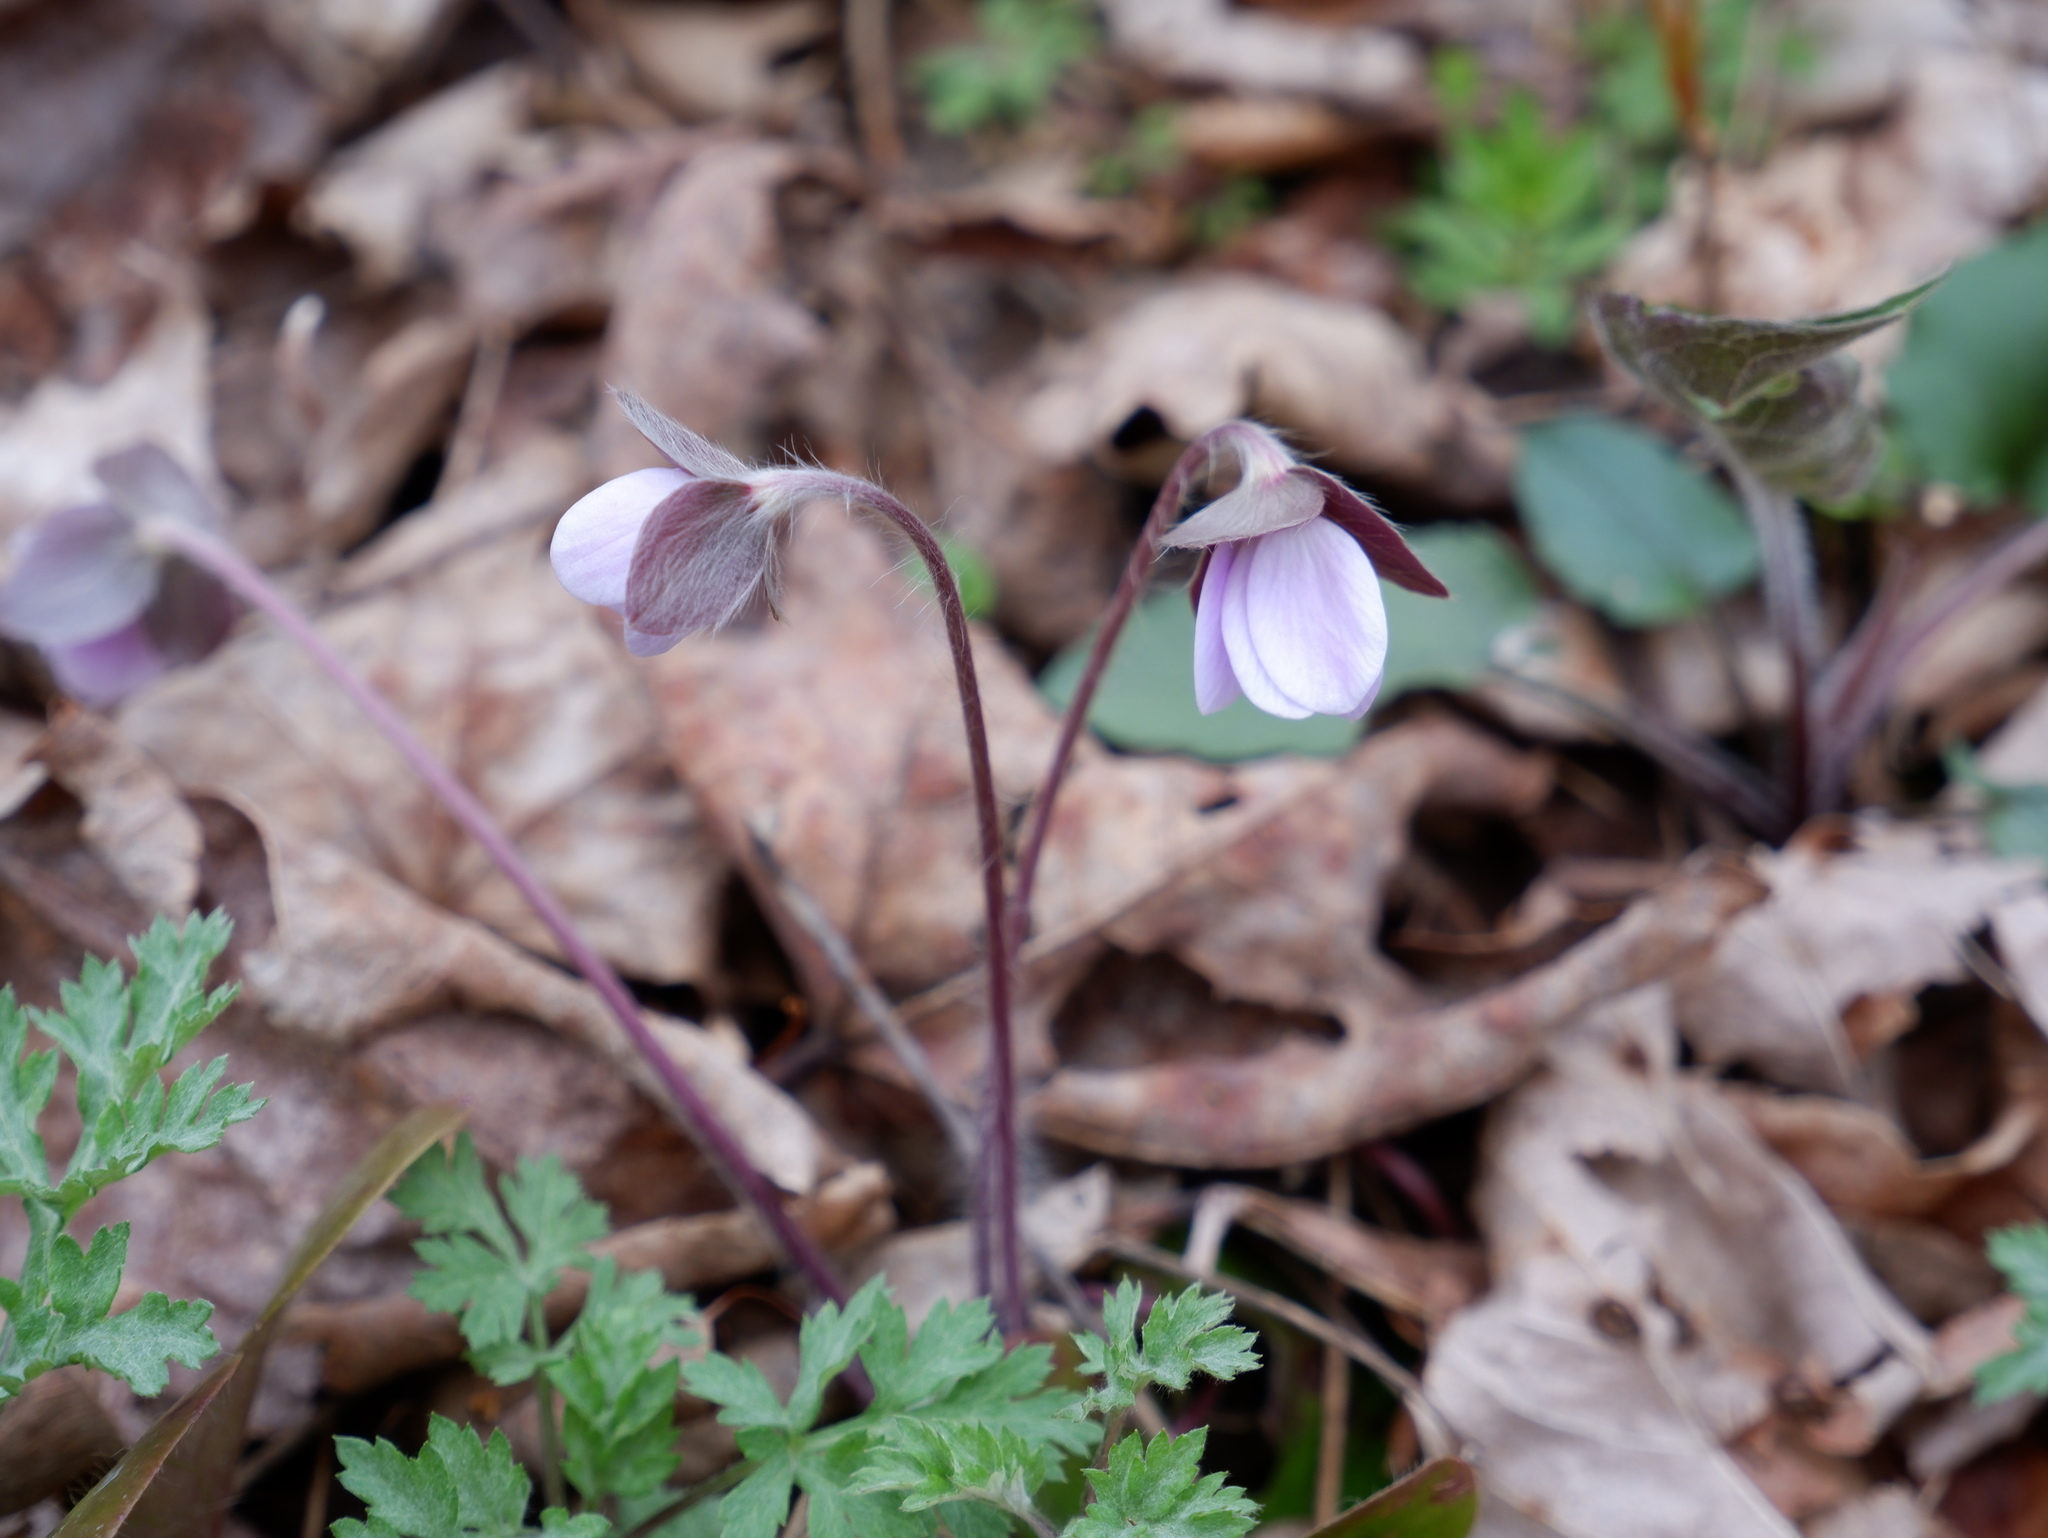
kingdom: Plantae
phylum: Tracheophyta
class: Magnoliopsida
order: Ranunculales
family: Ranunculaceae
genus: Hepatica
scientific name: Hepatica americana
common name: American hepatica
